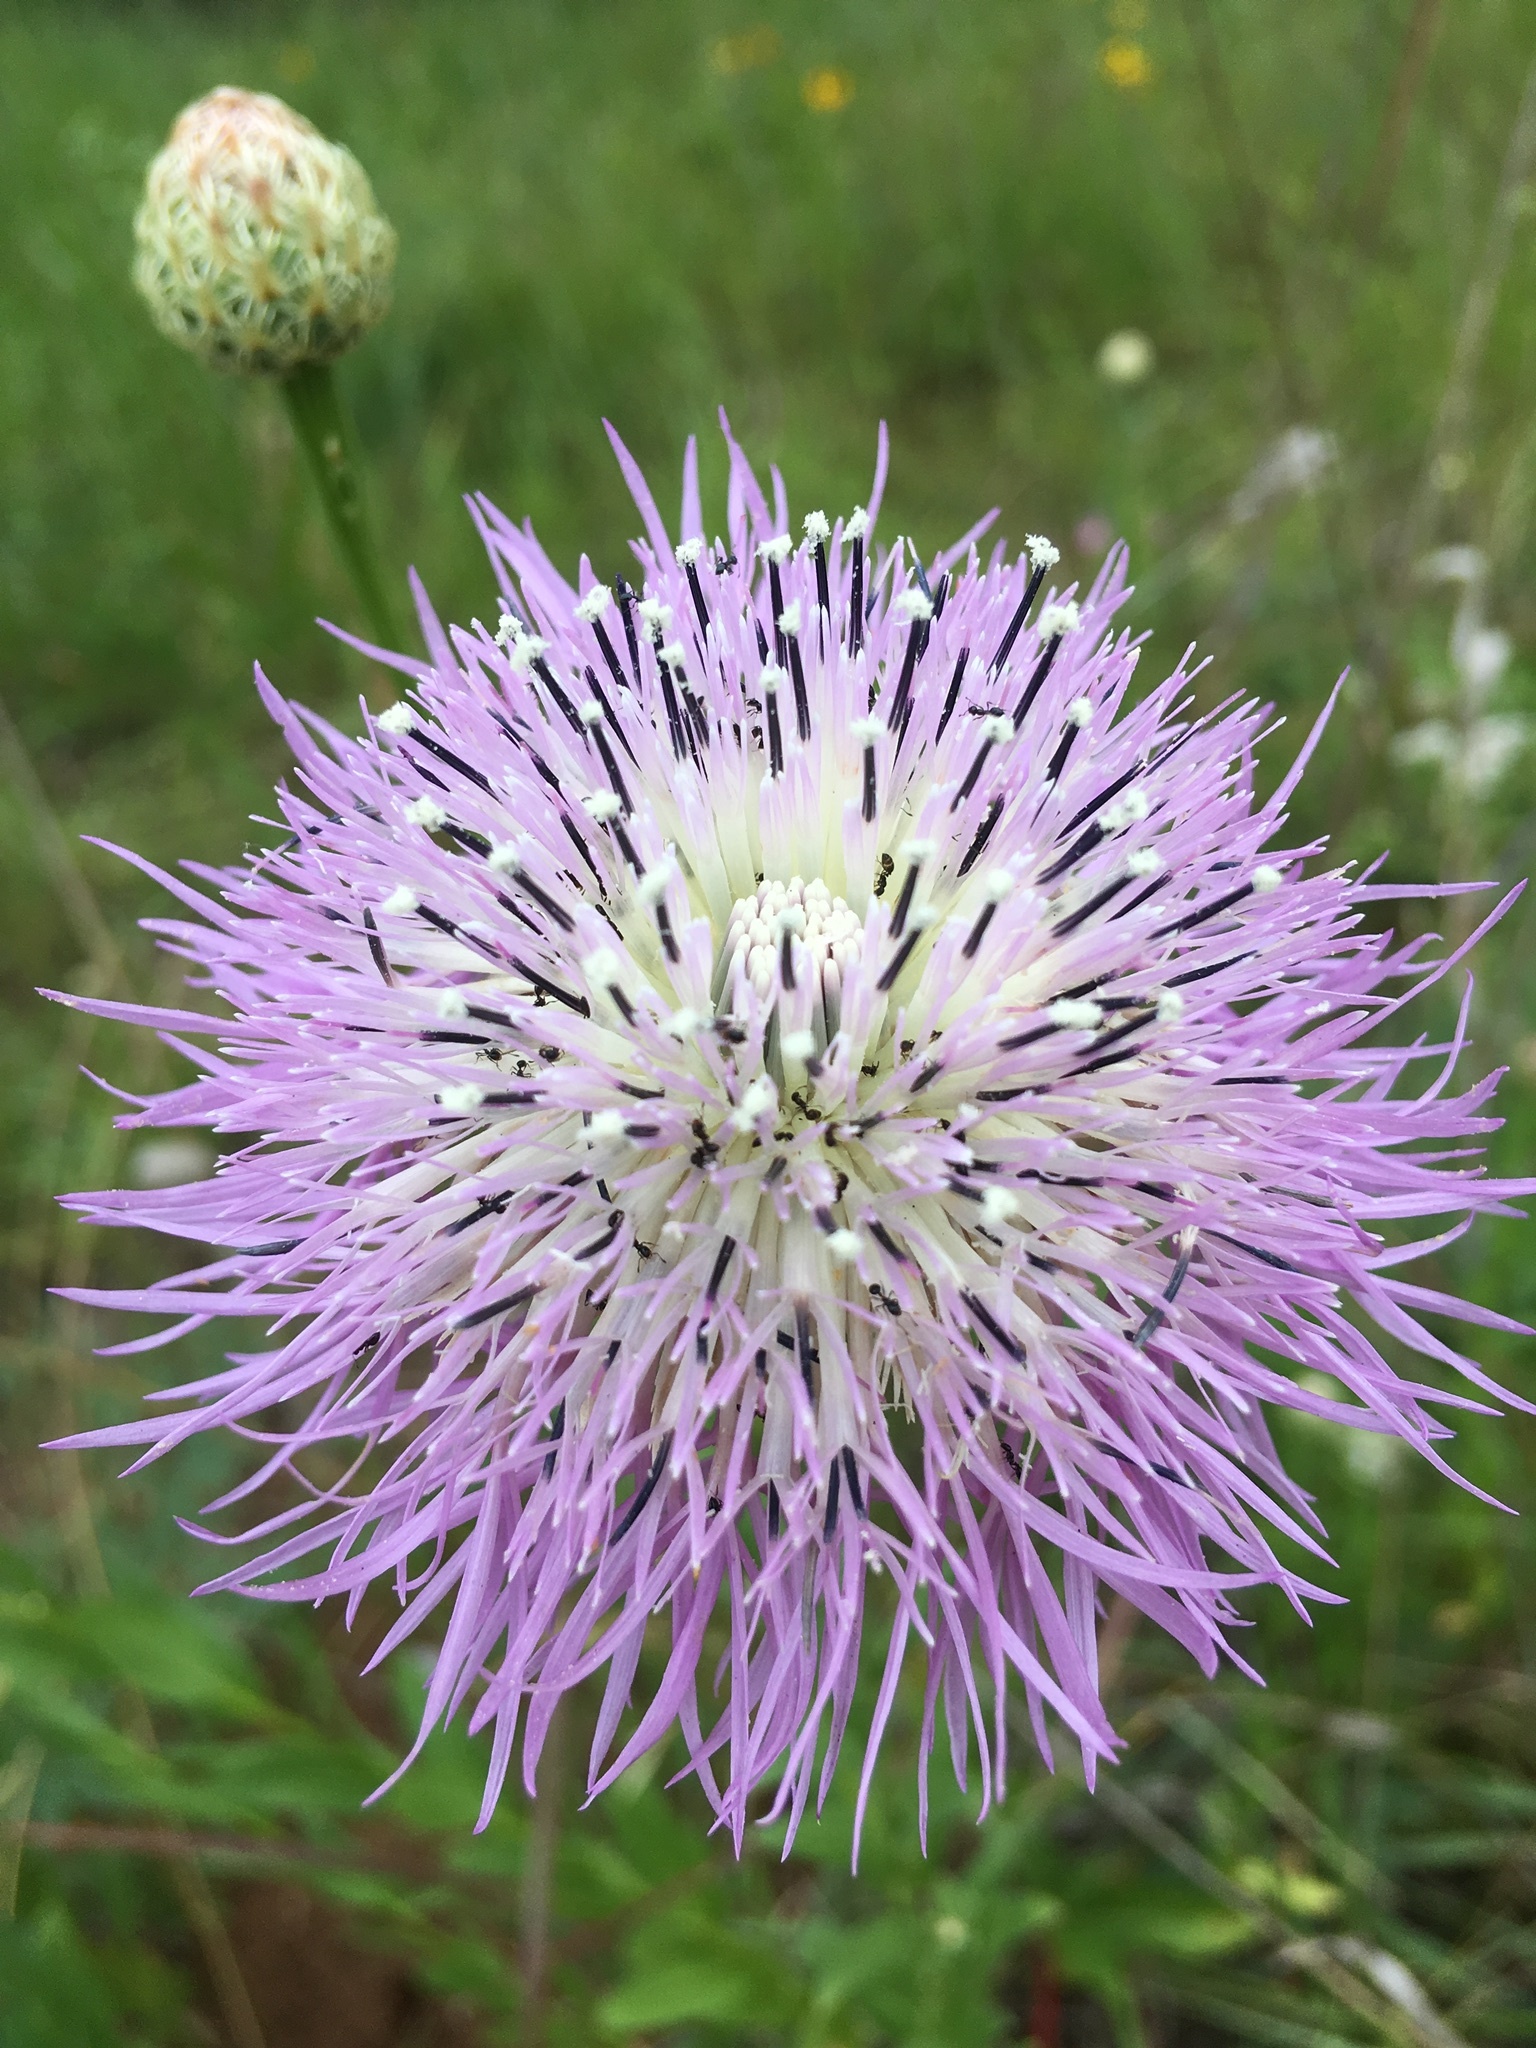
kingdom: Plantae
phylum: Tracheophyta
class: Magnoliopsida
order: Asterales
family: Asteraceae
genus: Plectocephalus
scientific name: Plectocephalus americanus
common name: American basket-flower
